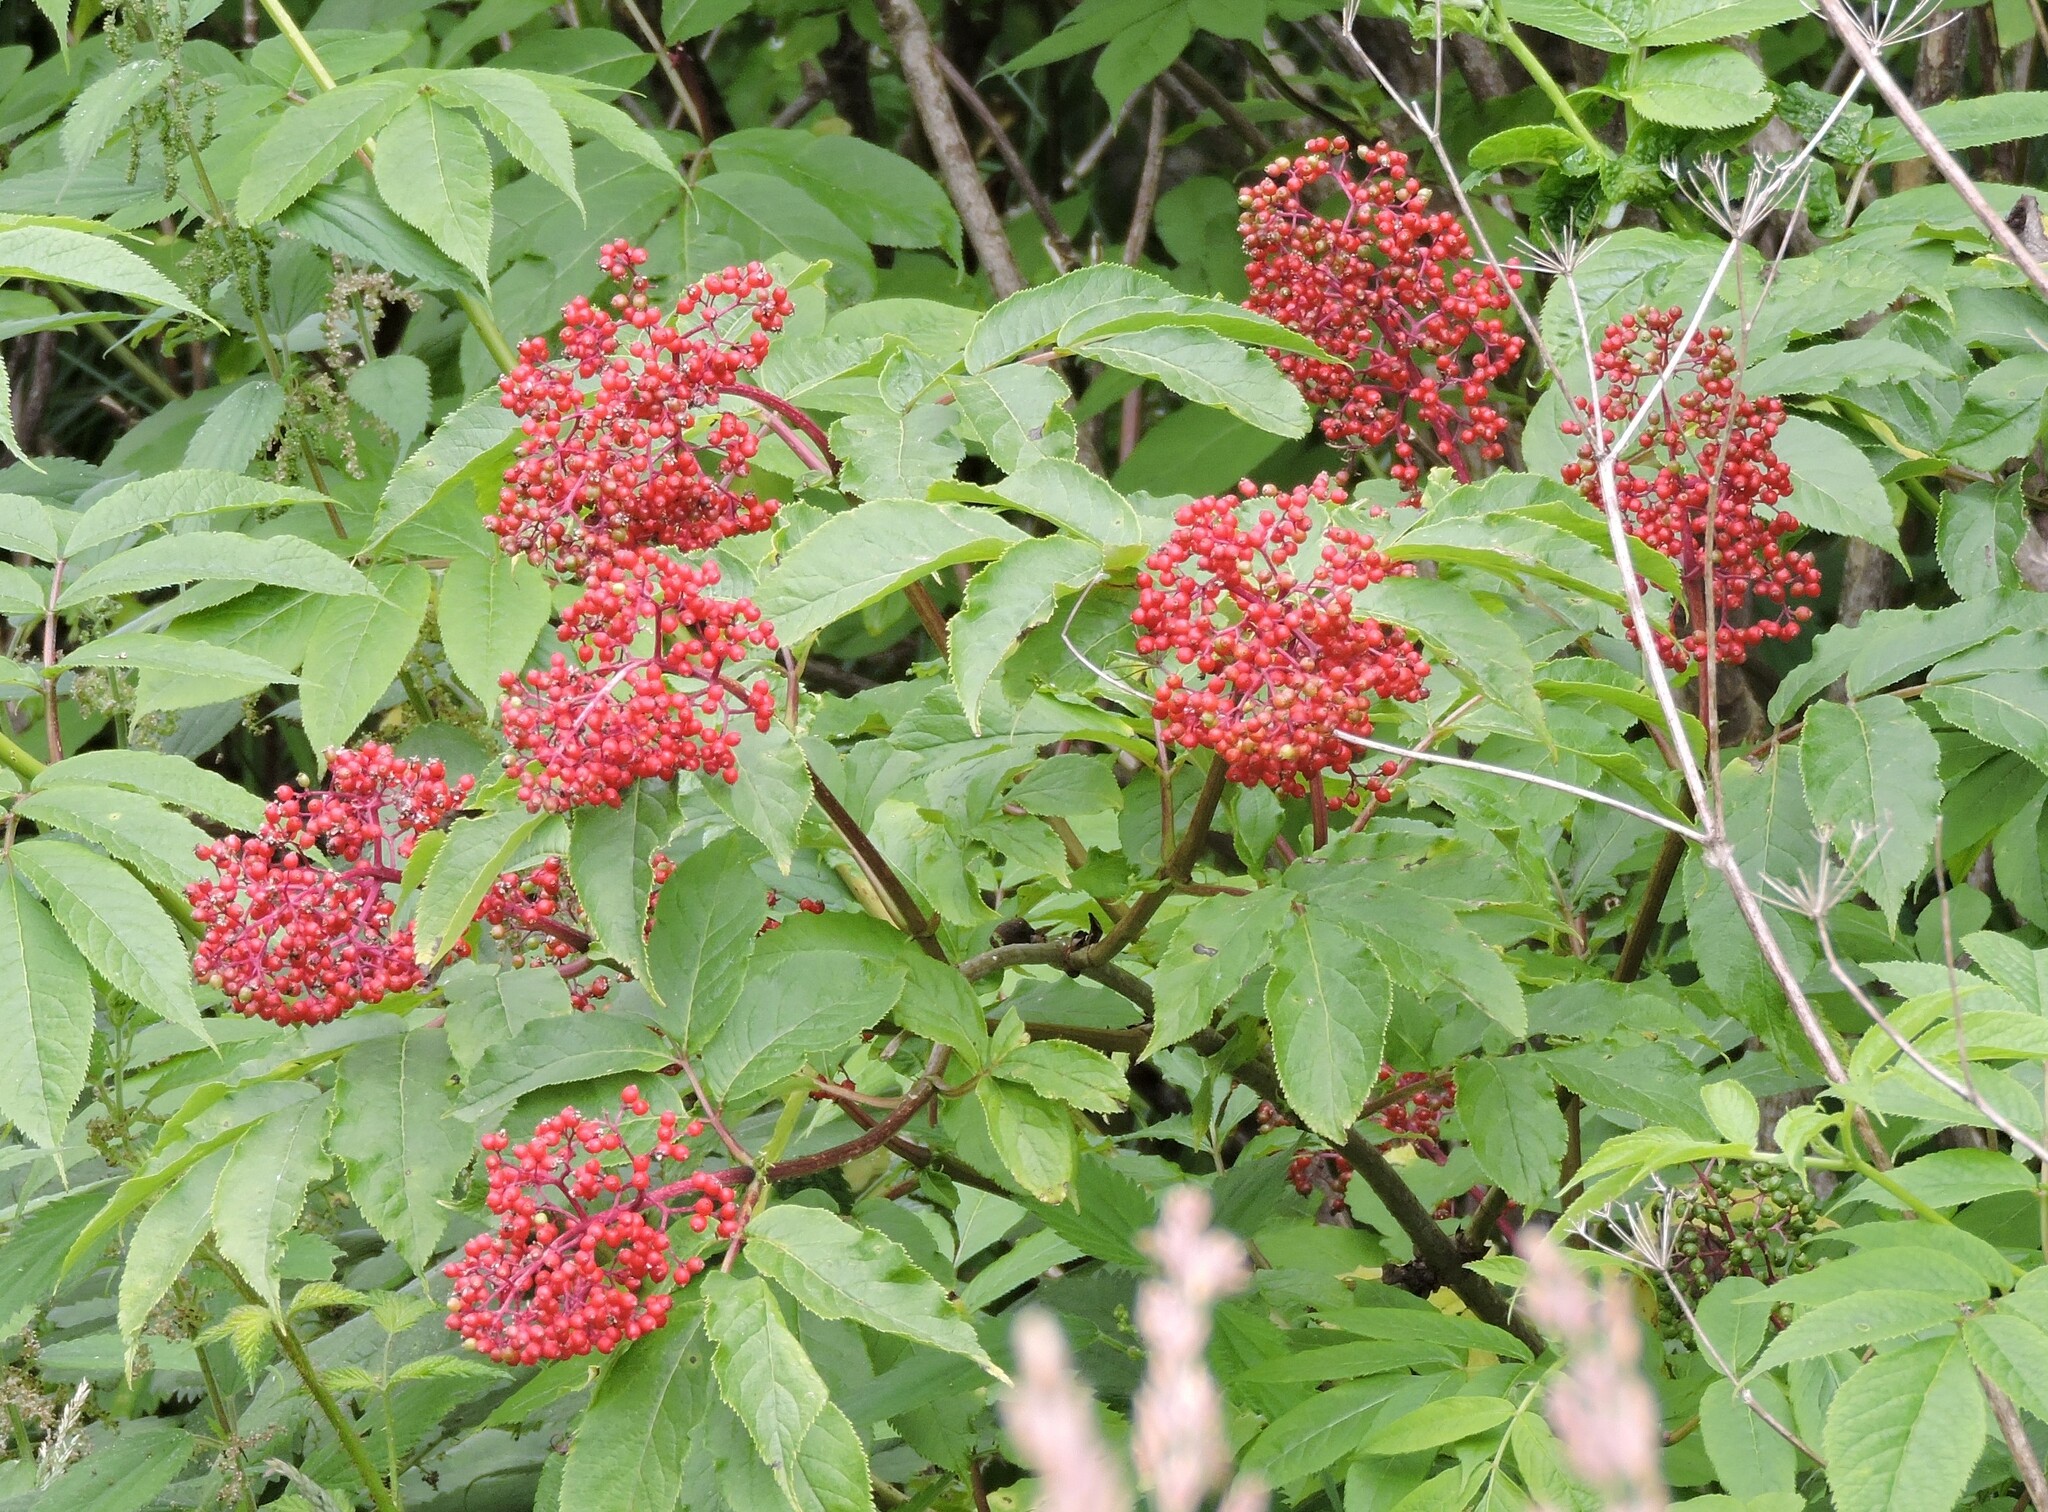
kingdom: Plantae
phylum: Tracheophyta
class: Magnoliopsida
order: Dipsacales
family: Viburnaceae
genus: Sambucus
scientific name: Sambucus racemosa
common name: Red-berried elder
